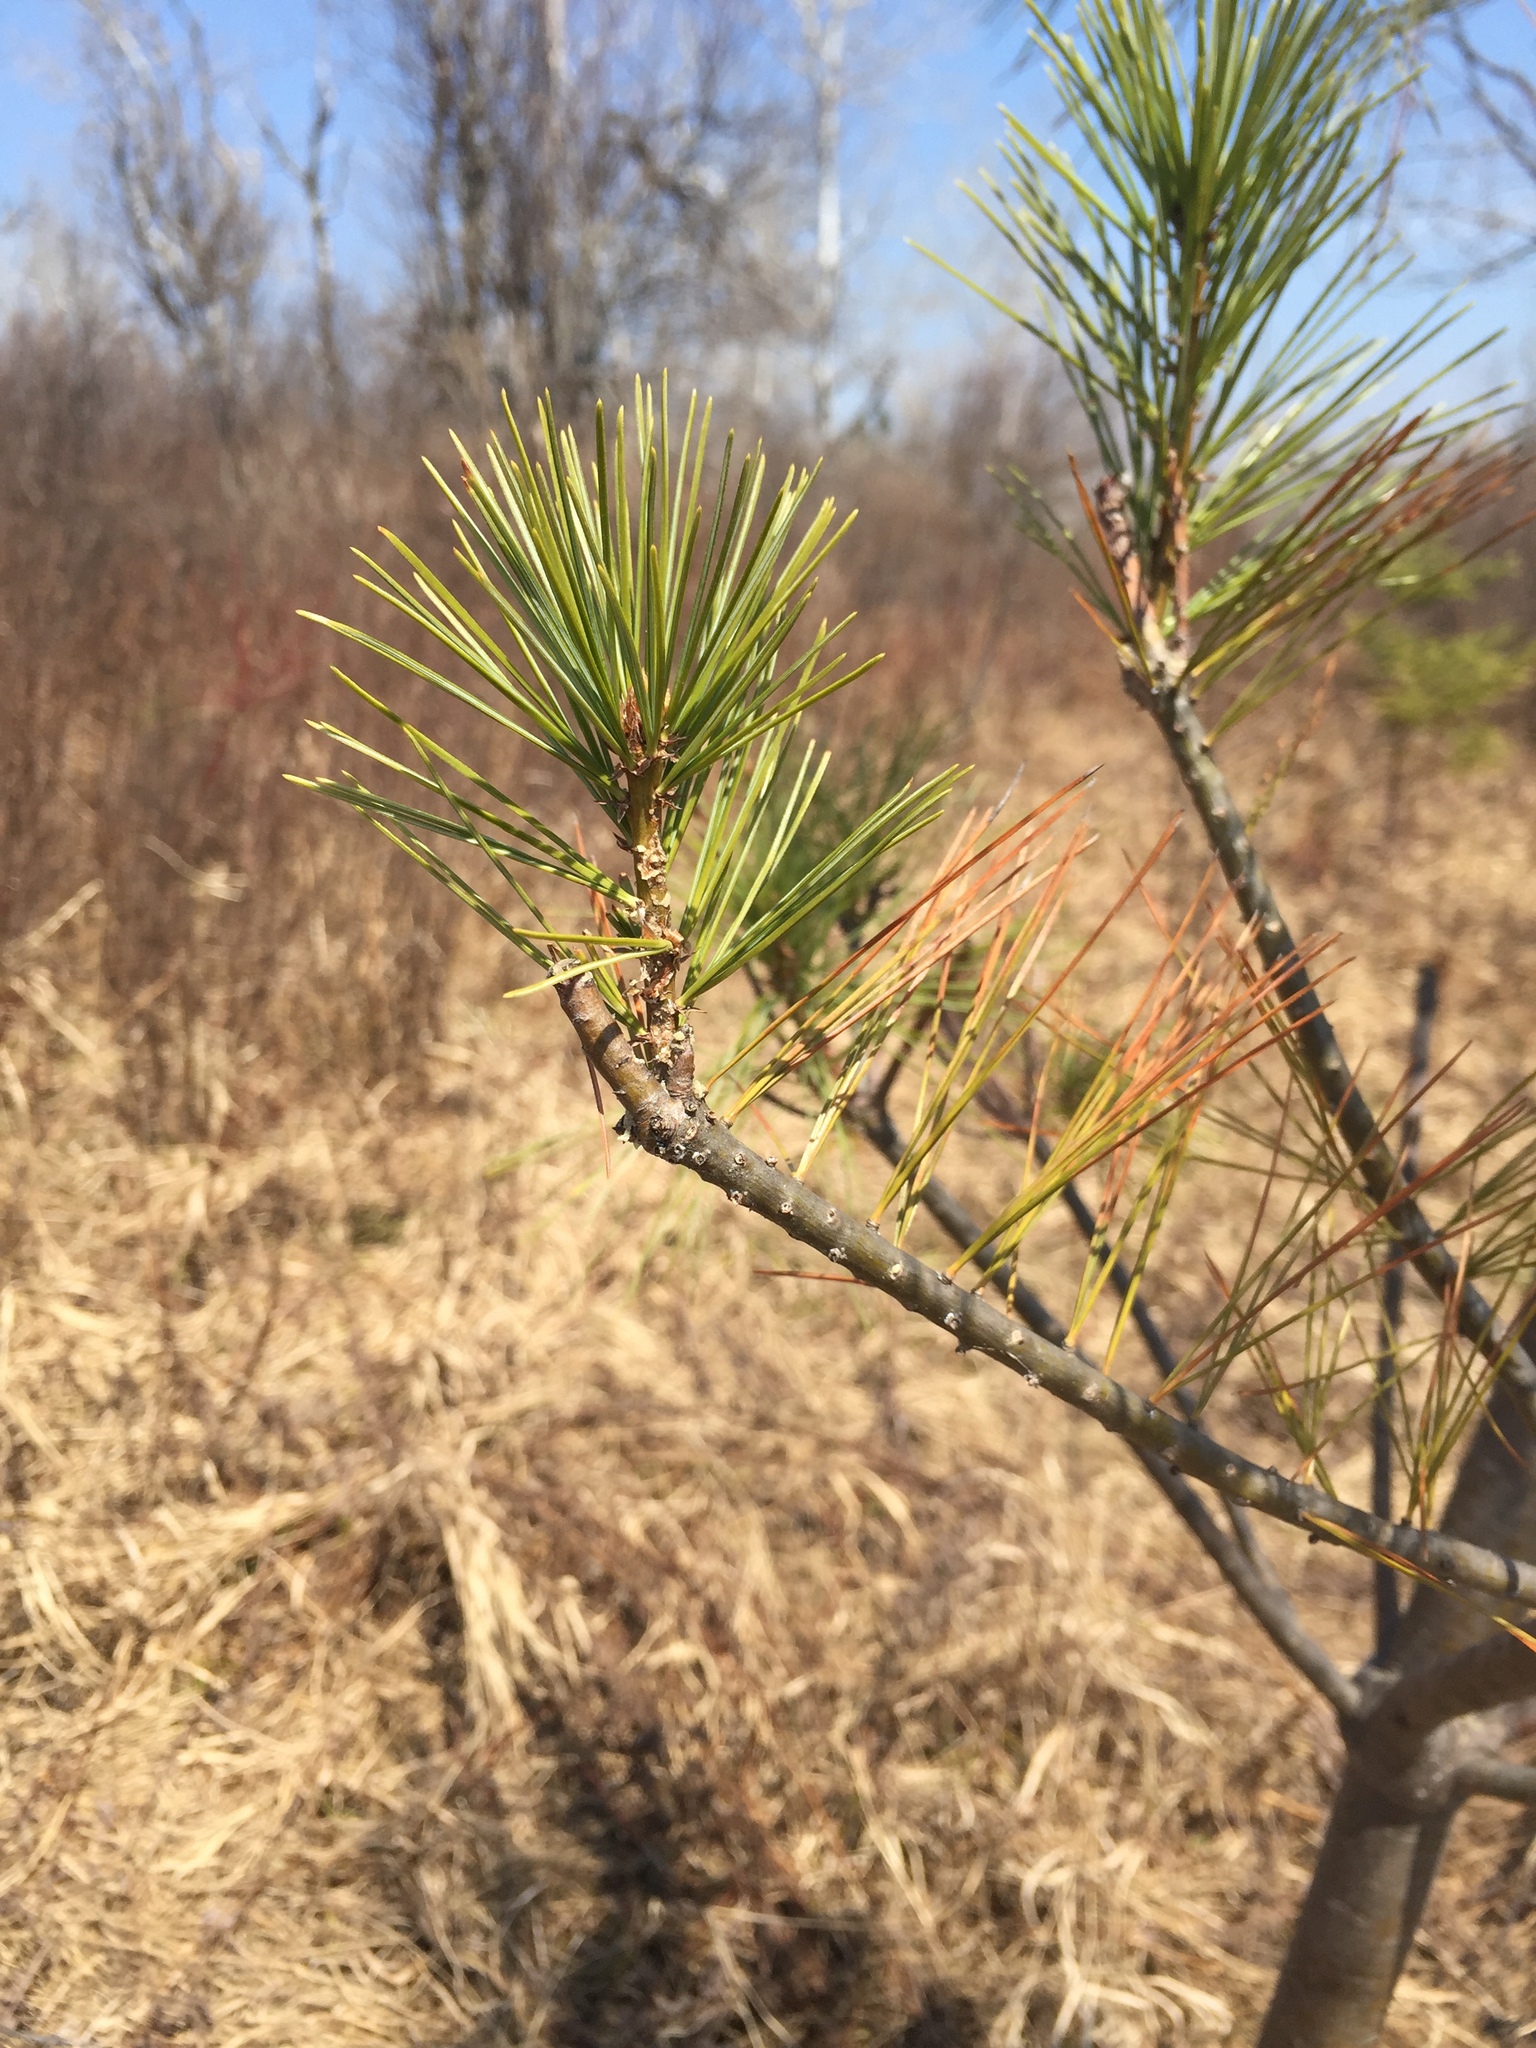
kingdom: Plantae
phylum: Tracheophyta
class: Pinopsida
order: Pinales
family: Pinaceae
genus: Pinus
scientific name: Pinus strobus
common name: Weymouth pine
